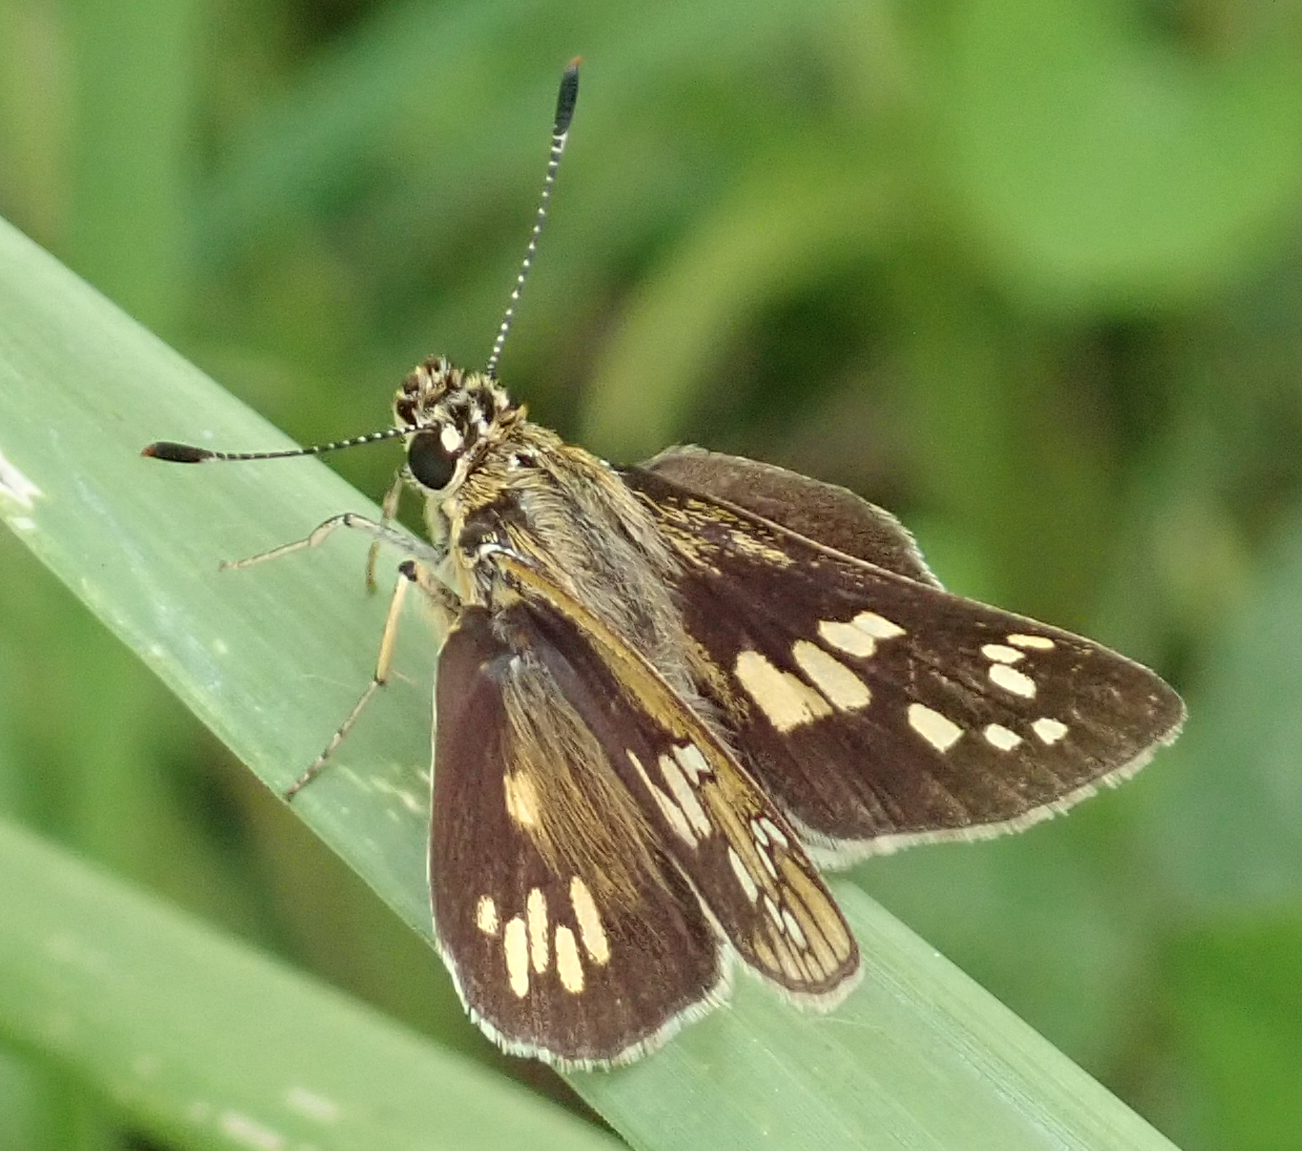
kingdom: Animalia
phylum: Arthropoda
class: Insecta
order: Lepidoptera
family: Hesperiidae
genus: Dotta
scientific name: Dotta
